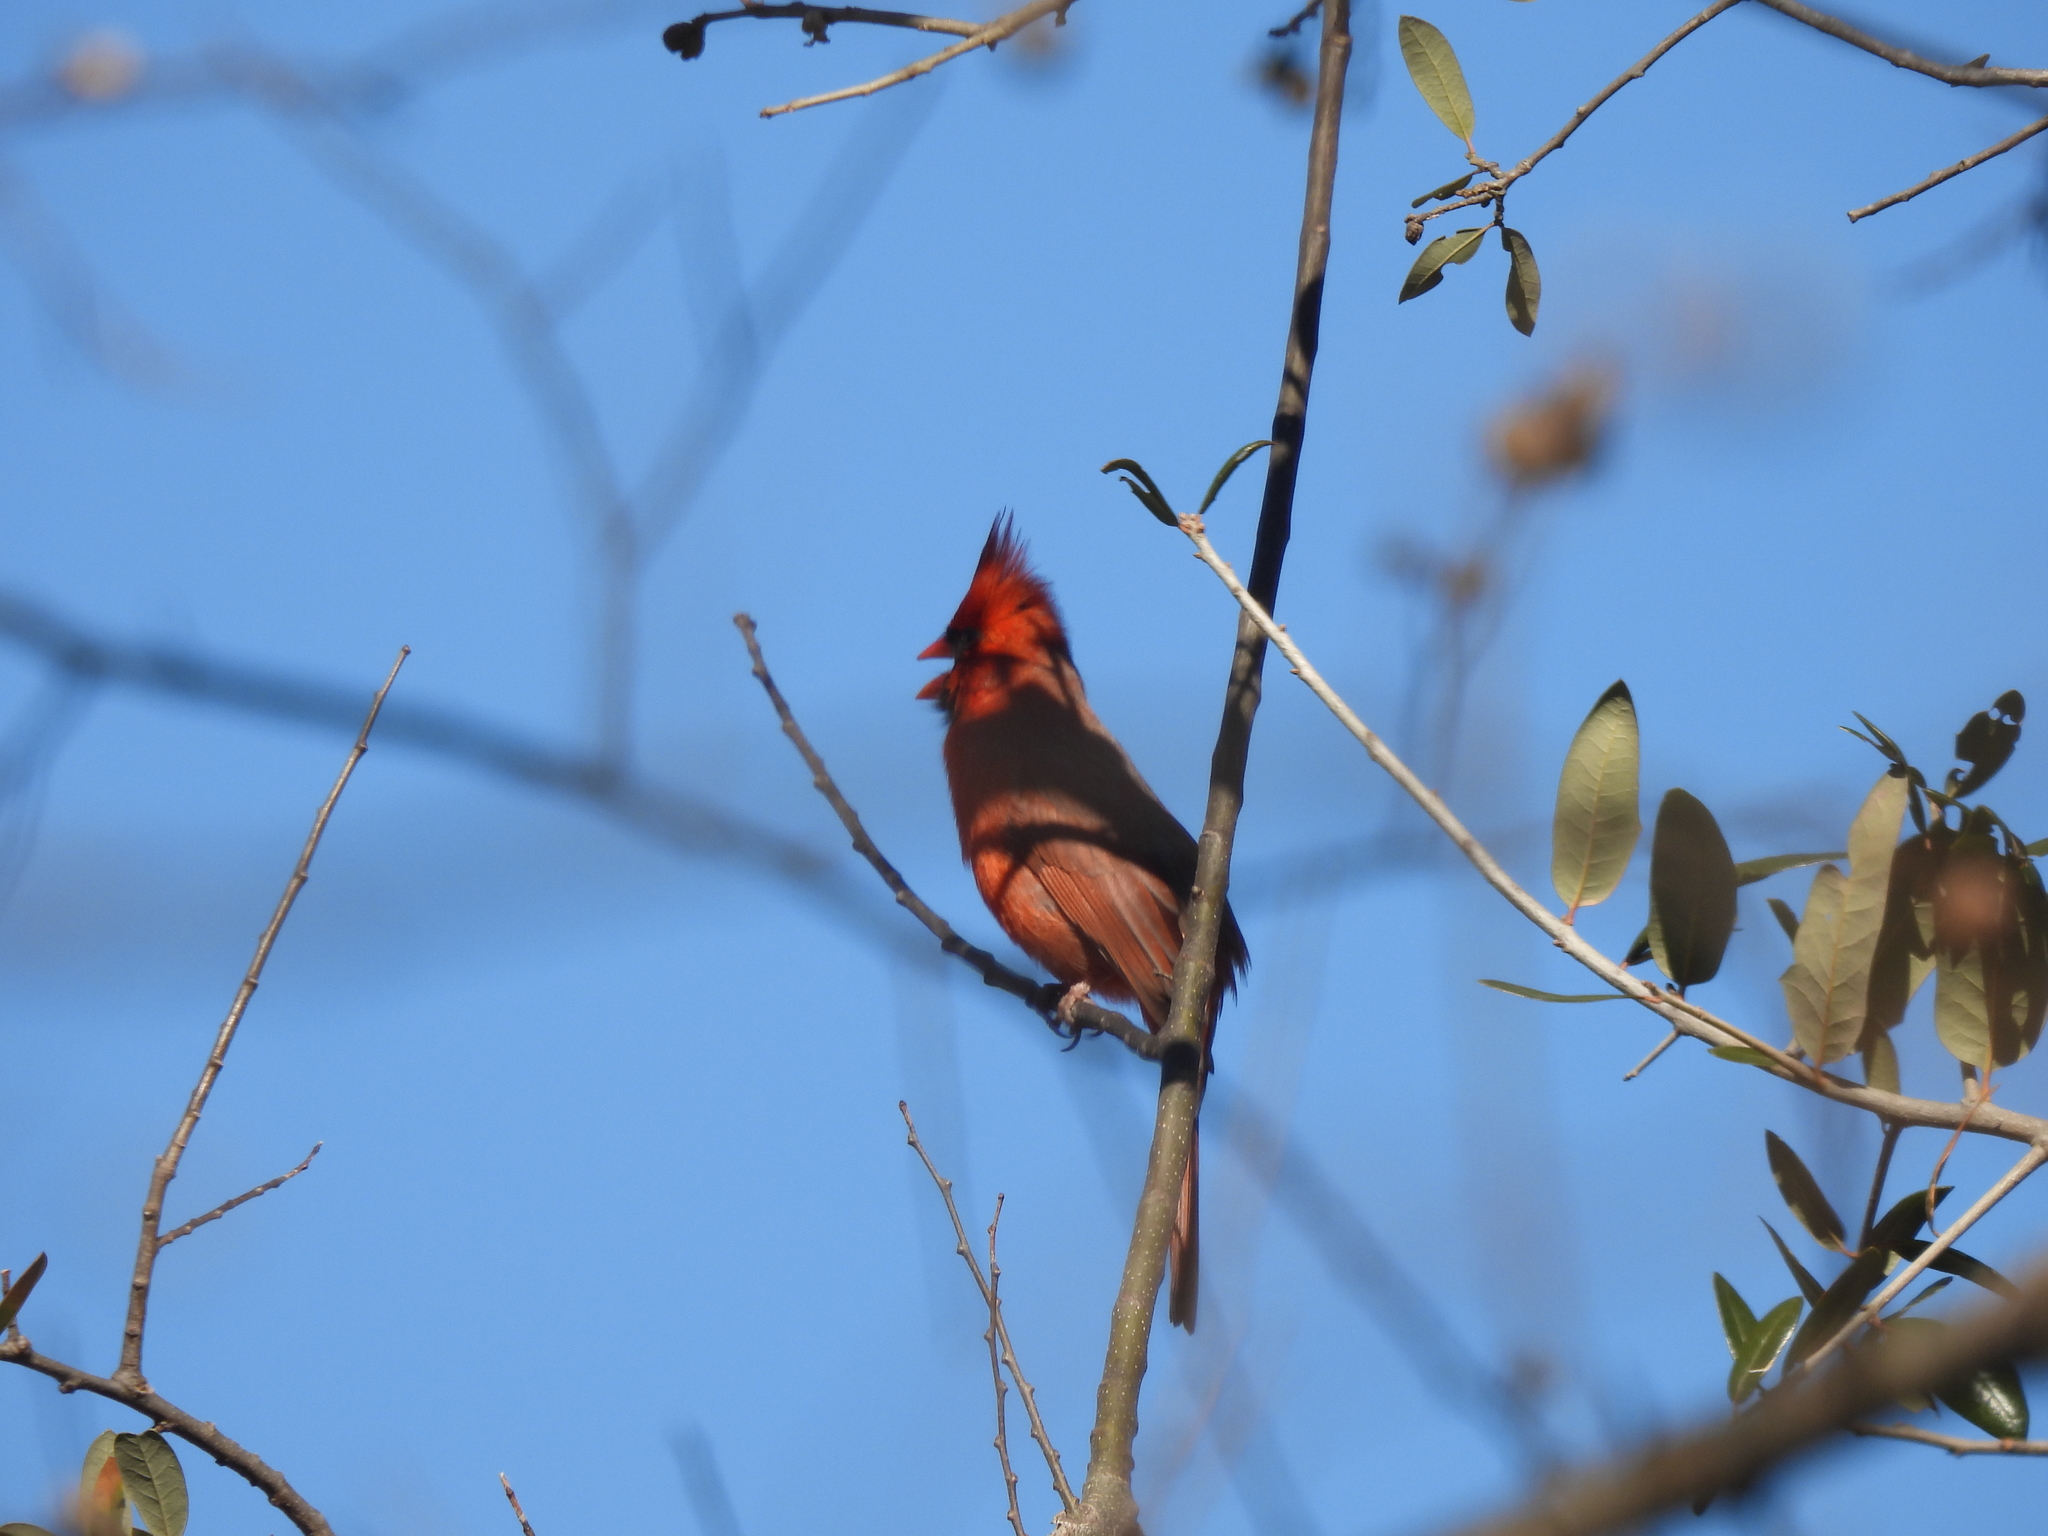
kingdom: Animalia
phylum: Chordata
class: Aves
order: Passeriformes
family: Cardinalidae
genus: Cardinalis
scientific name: Cardinalis cardinalis
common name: Northern cardinal
